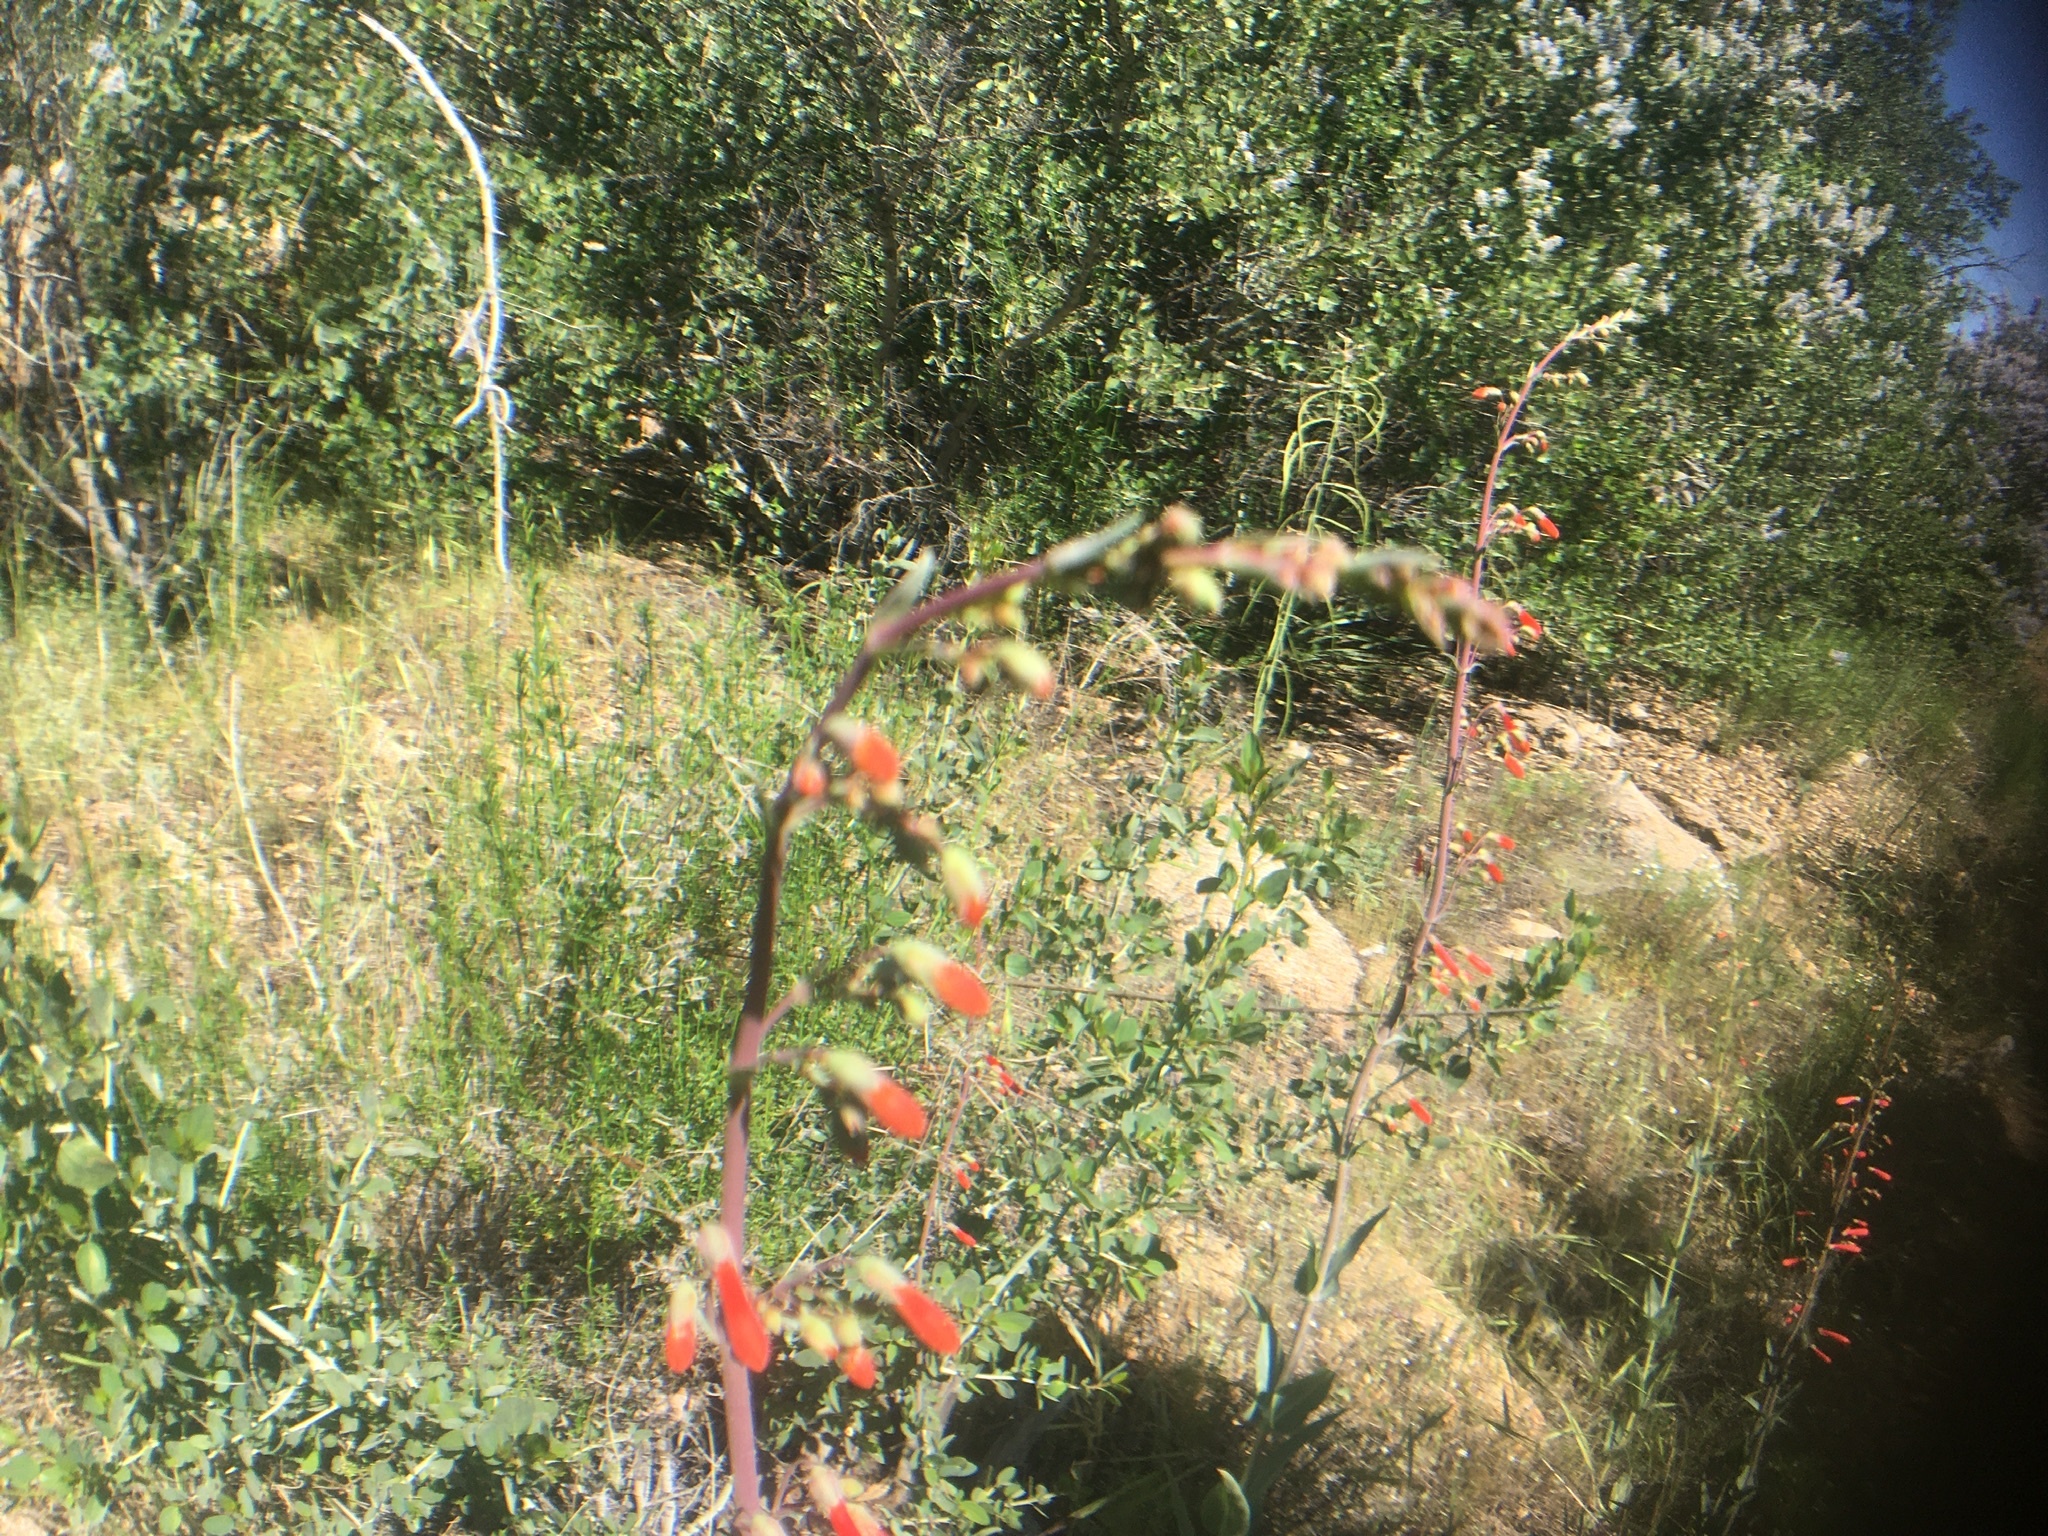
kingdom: Plantae
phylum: Tracheophyta
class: Magnoliopsida
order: Lamiales
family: Plantaginaceae
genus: Penstemon
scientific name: Penstemon centranthifolius
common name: Scarlet bugler
